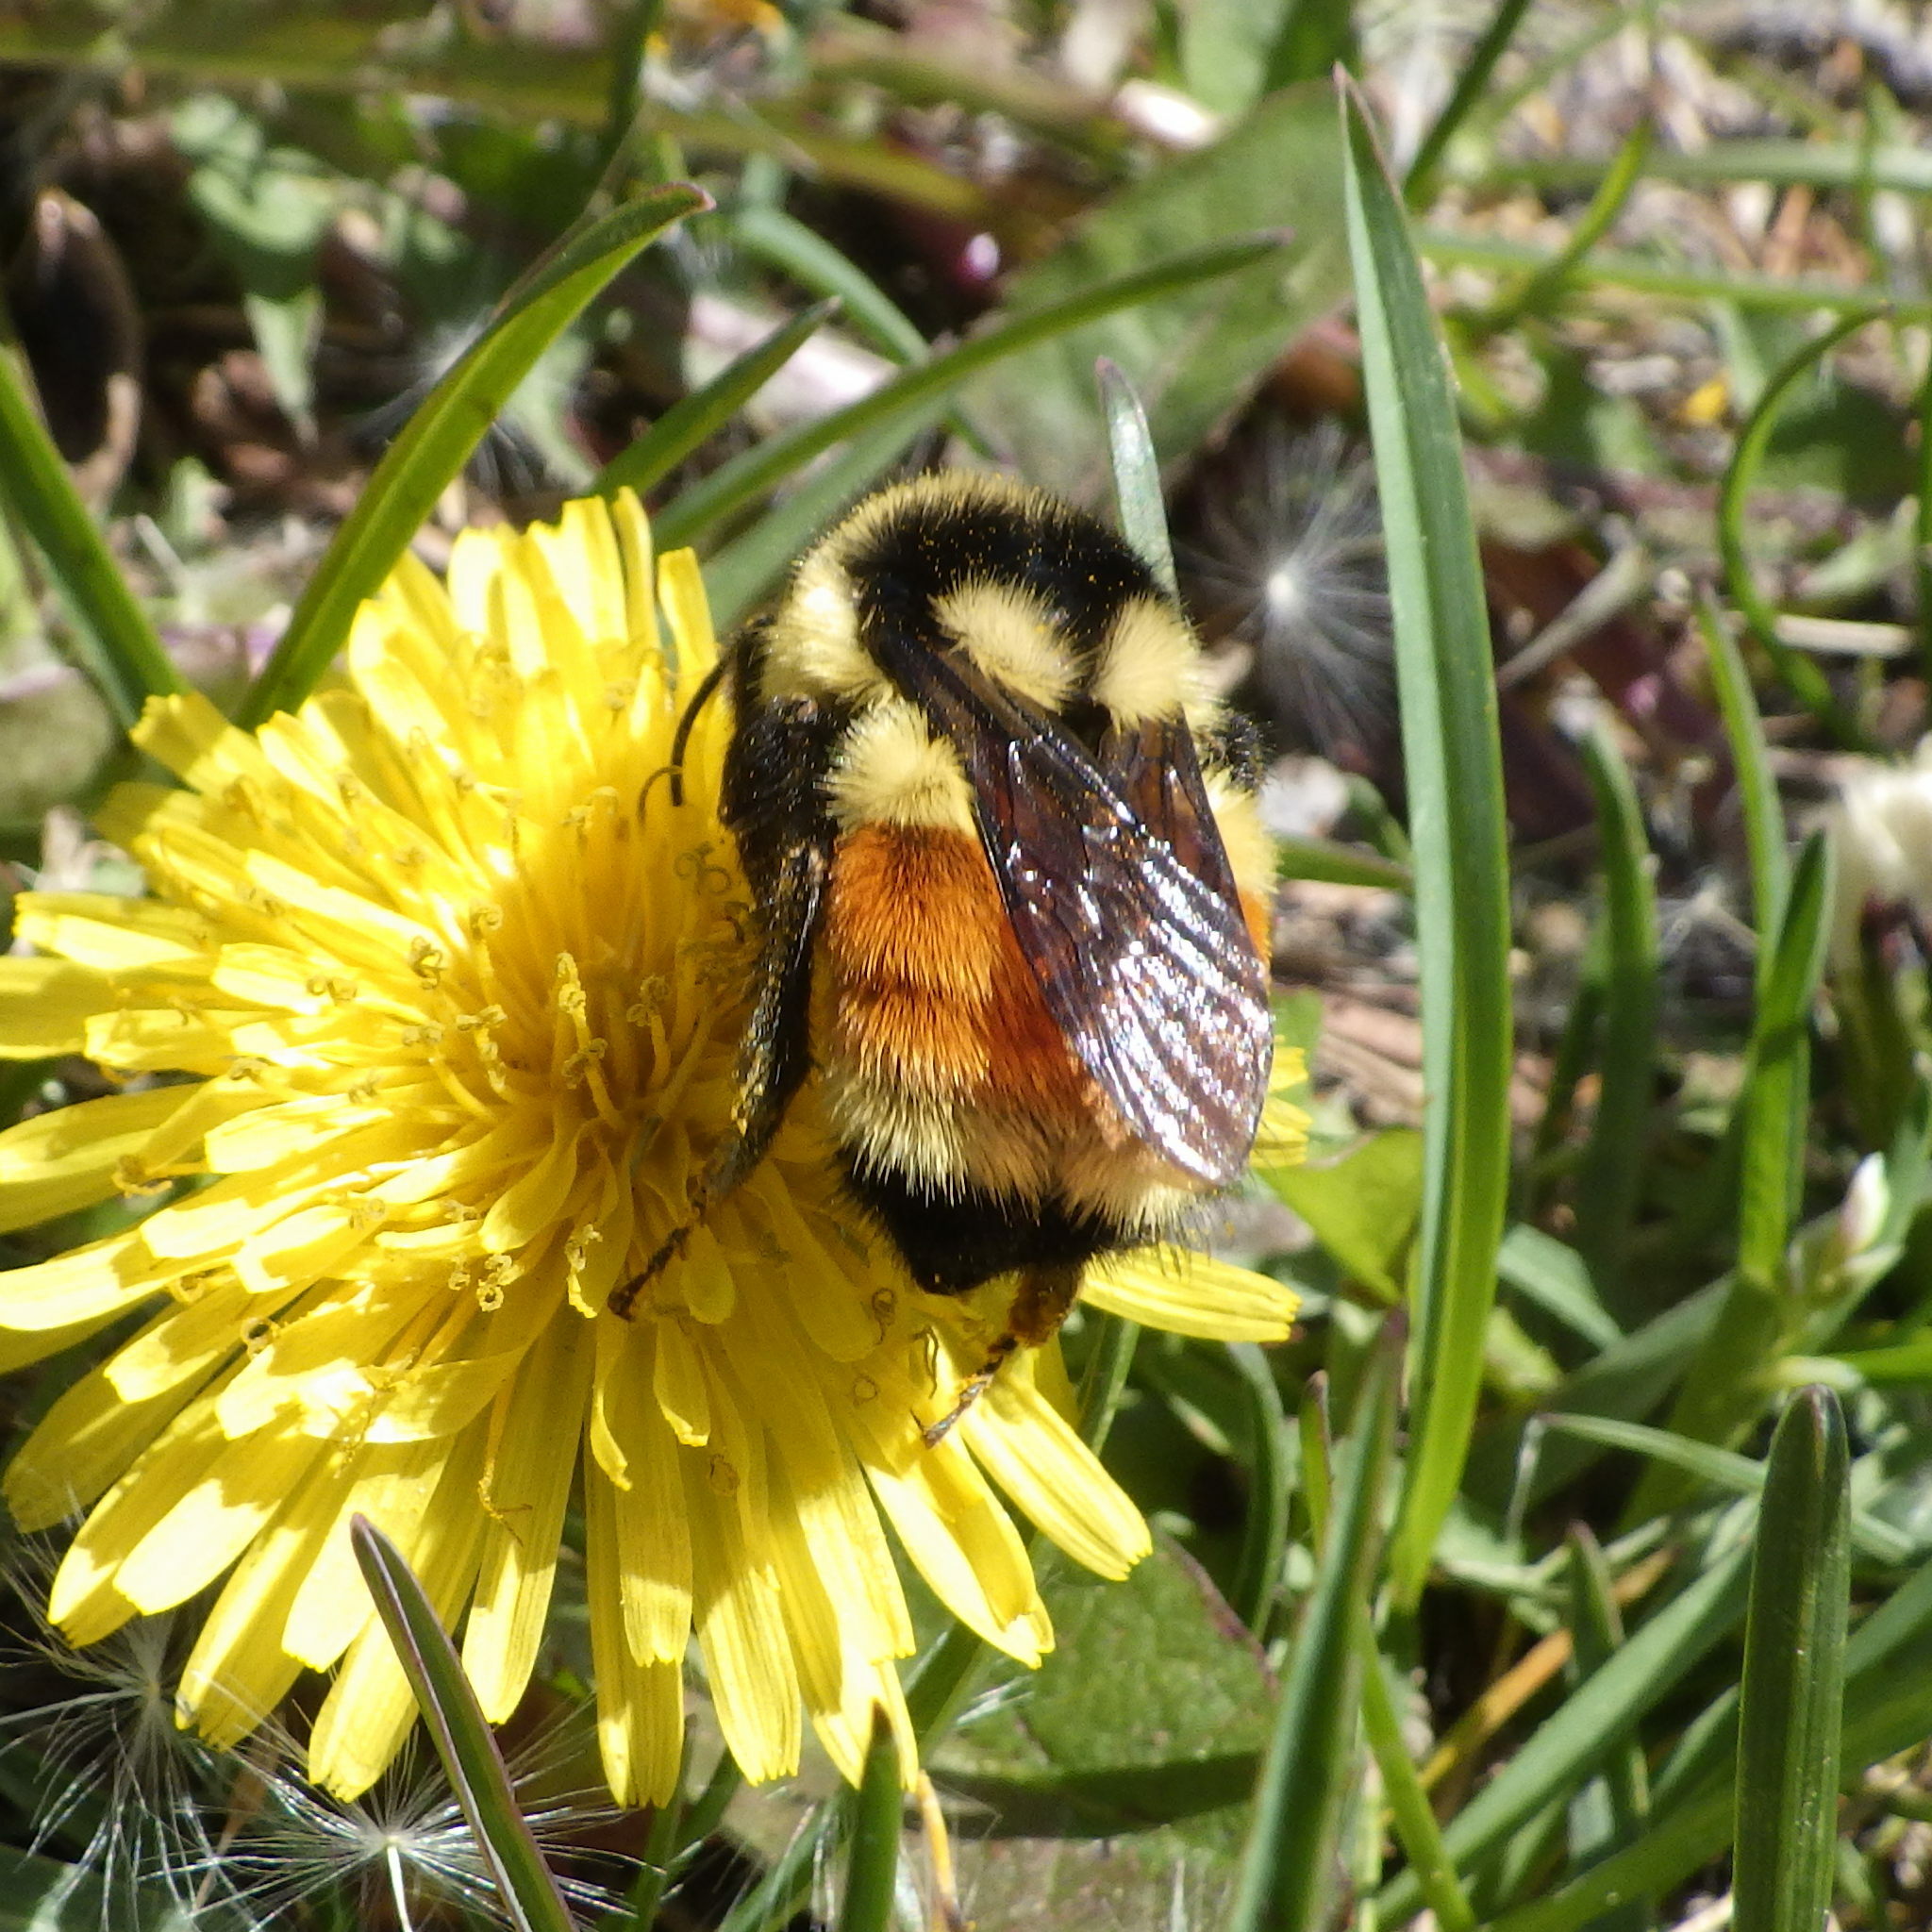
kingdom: Animalia
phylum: Arthropoda
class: Insecta
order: Hymenoptera
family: Apidae
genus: Bombus
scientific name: Bombus ternarius
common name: Tri-colored bumble bee
